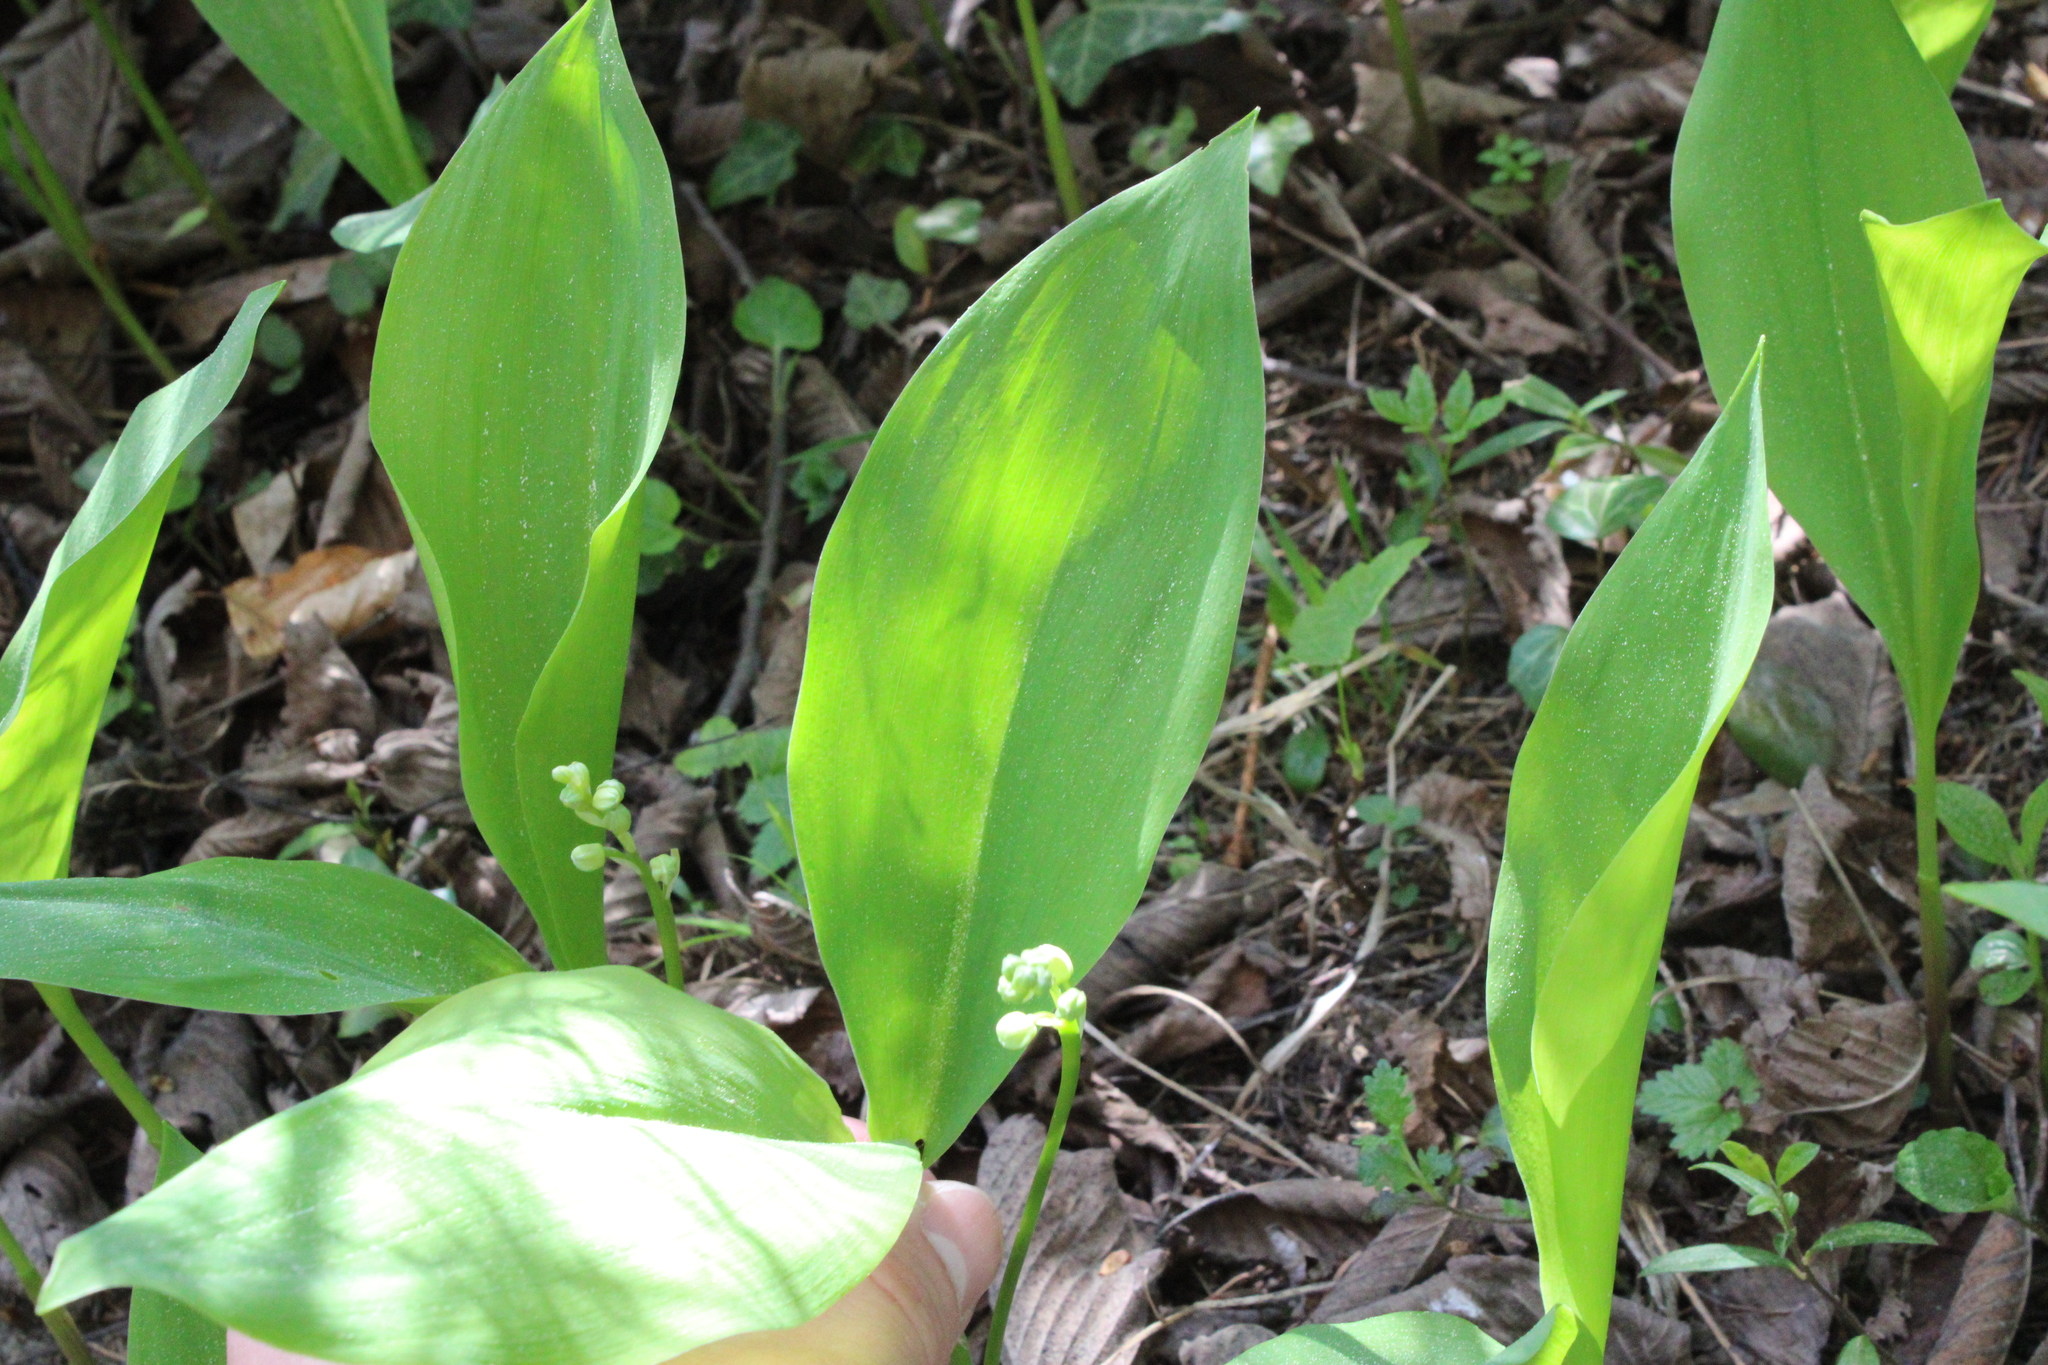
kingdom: Plantae
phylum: Tracheophyta
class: Liliopsida
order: Asparagales
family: Asparagaceae
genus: Convallaria
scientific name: Convallaria majalis
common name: Lily-of-the-valley
